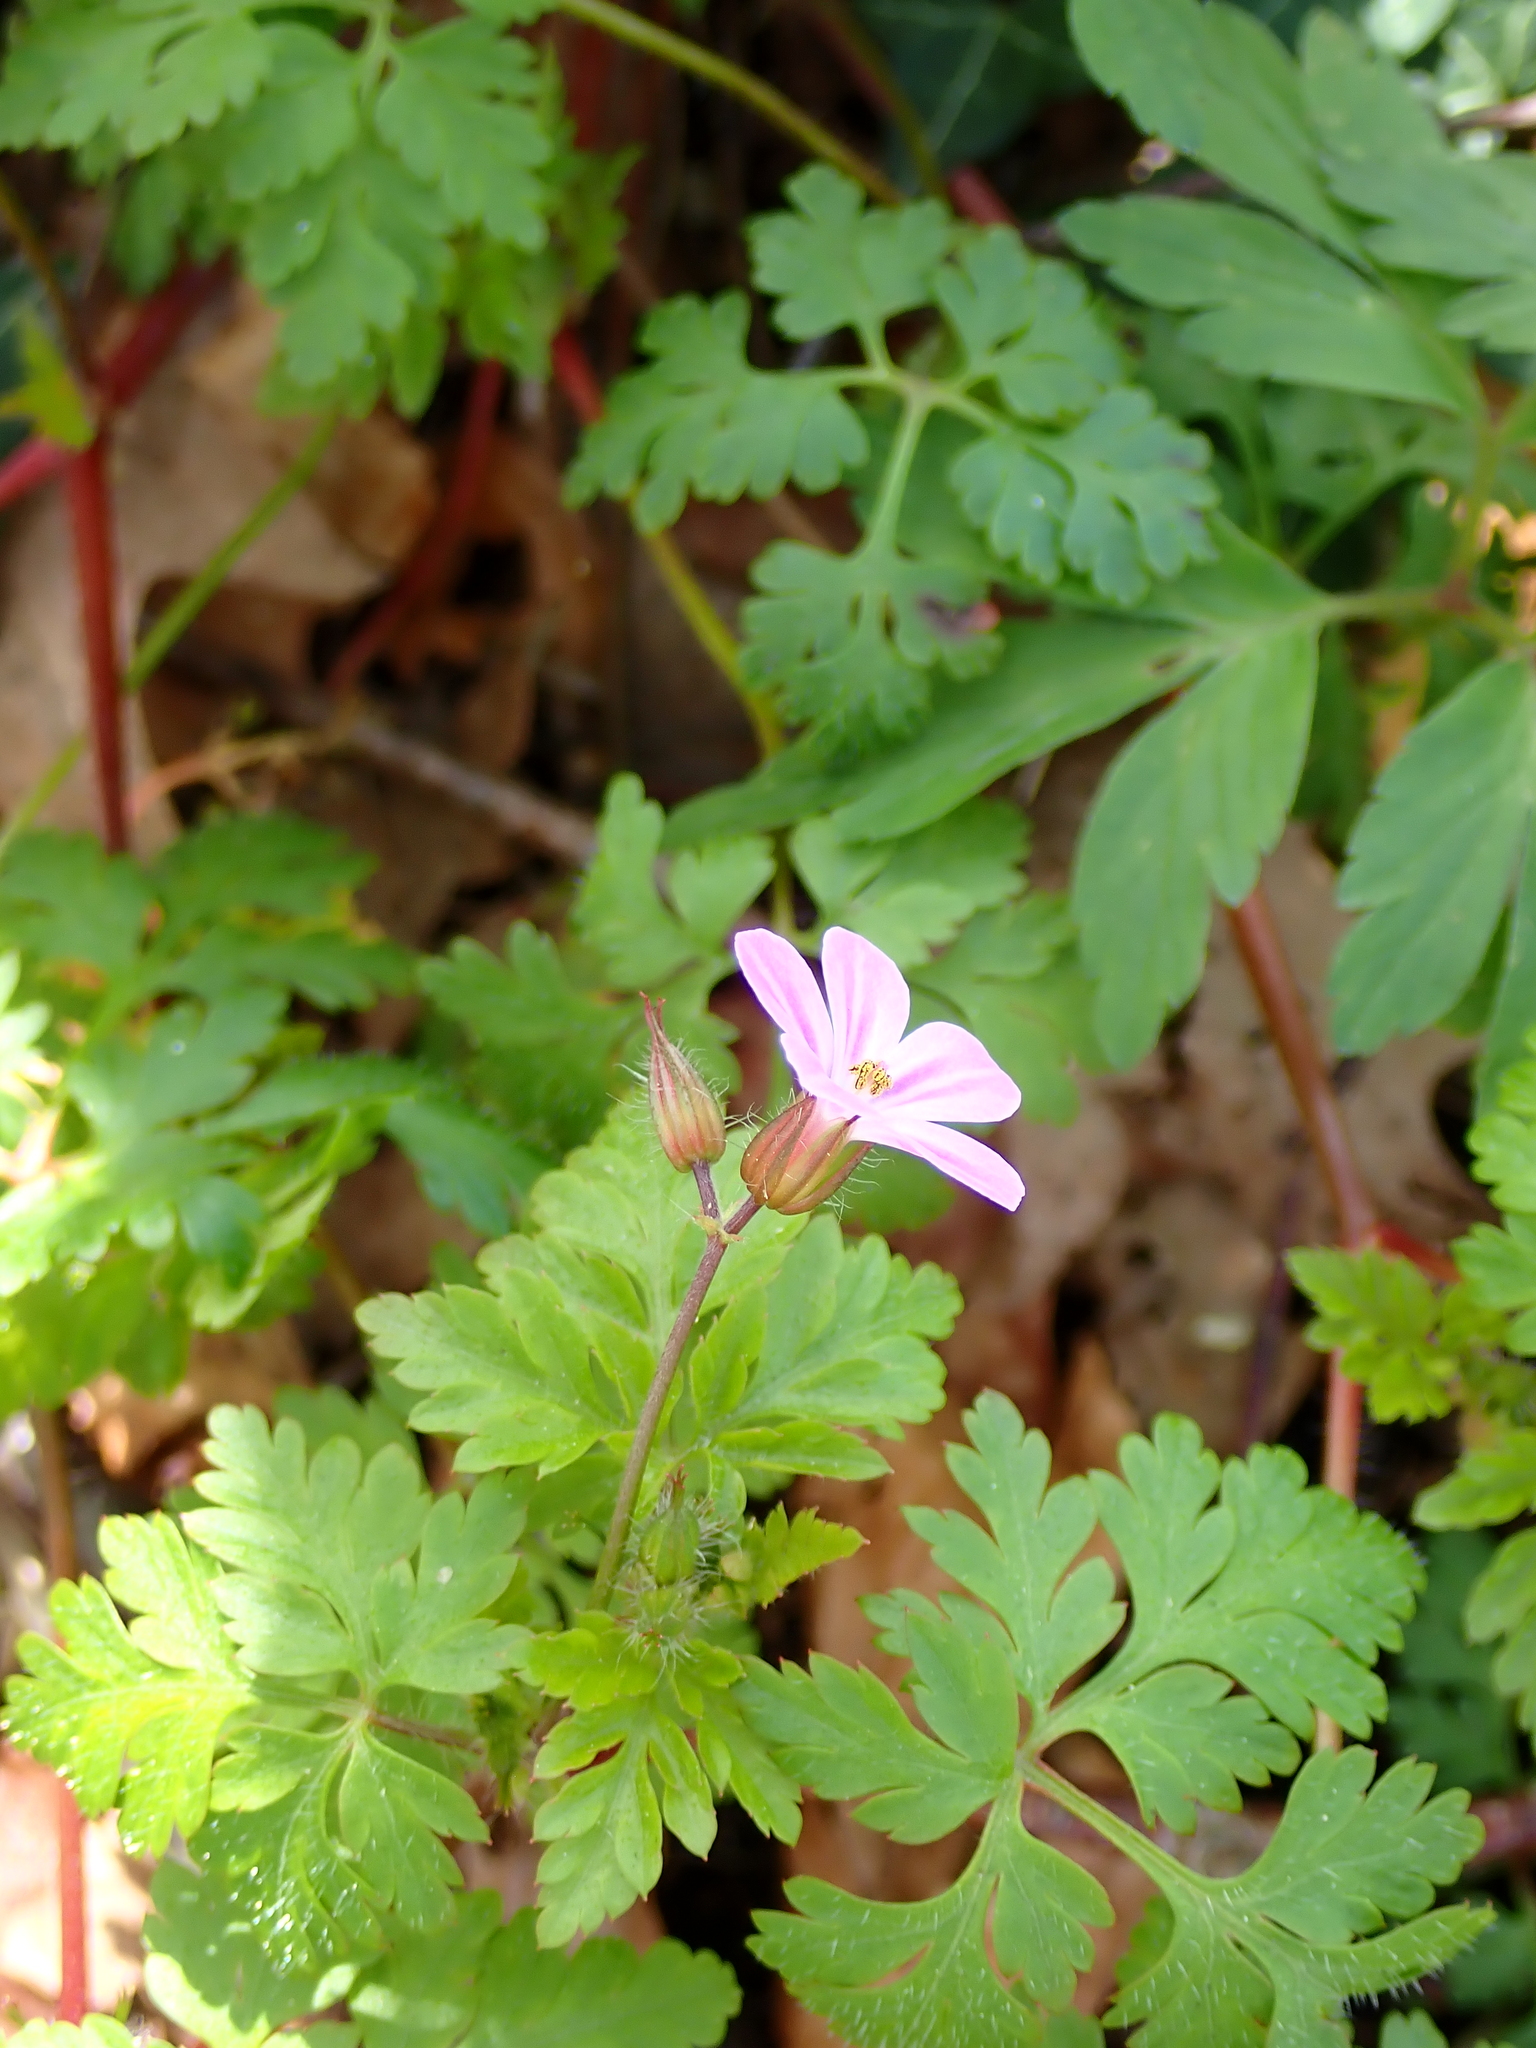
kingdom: Plantae
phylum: Tracheophyta
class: Magnoliopsida
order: Geraniales
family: Geraniaceae
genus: Geranium
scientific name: Geranium robertianum
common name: Herb-robert
